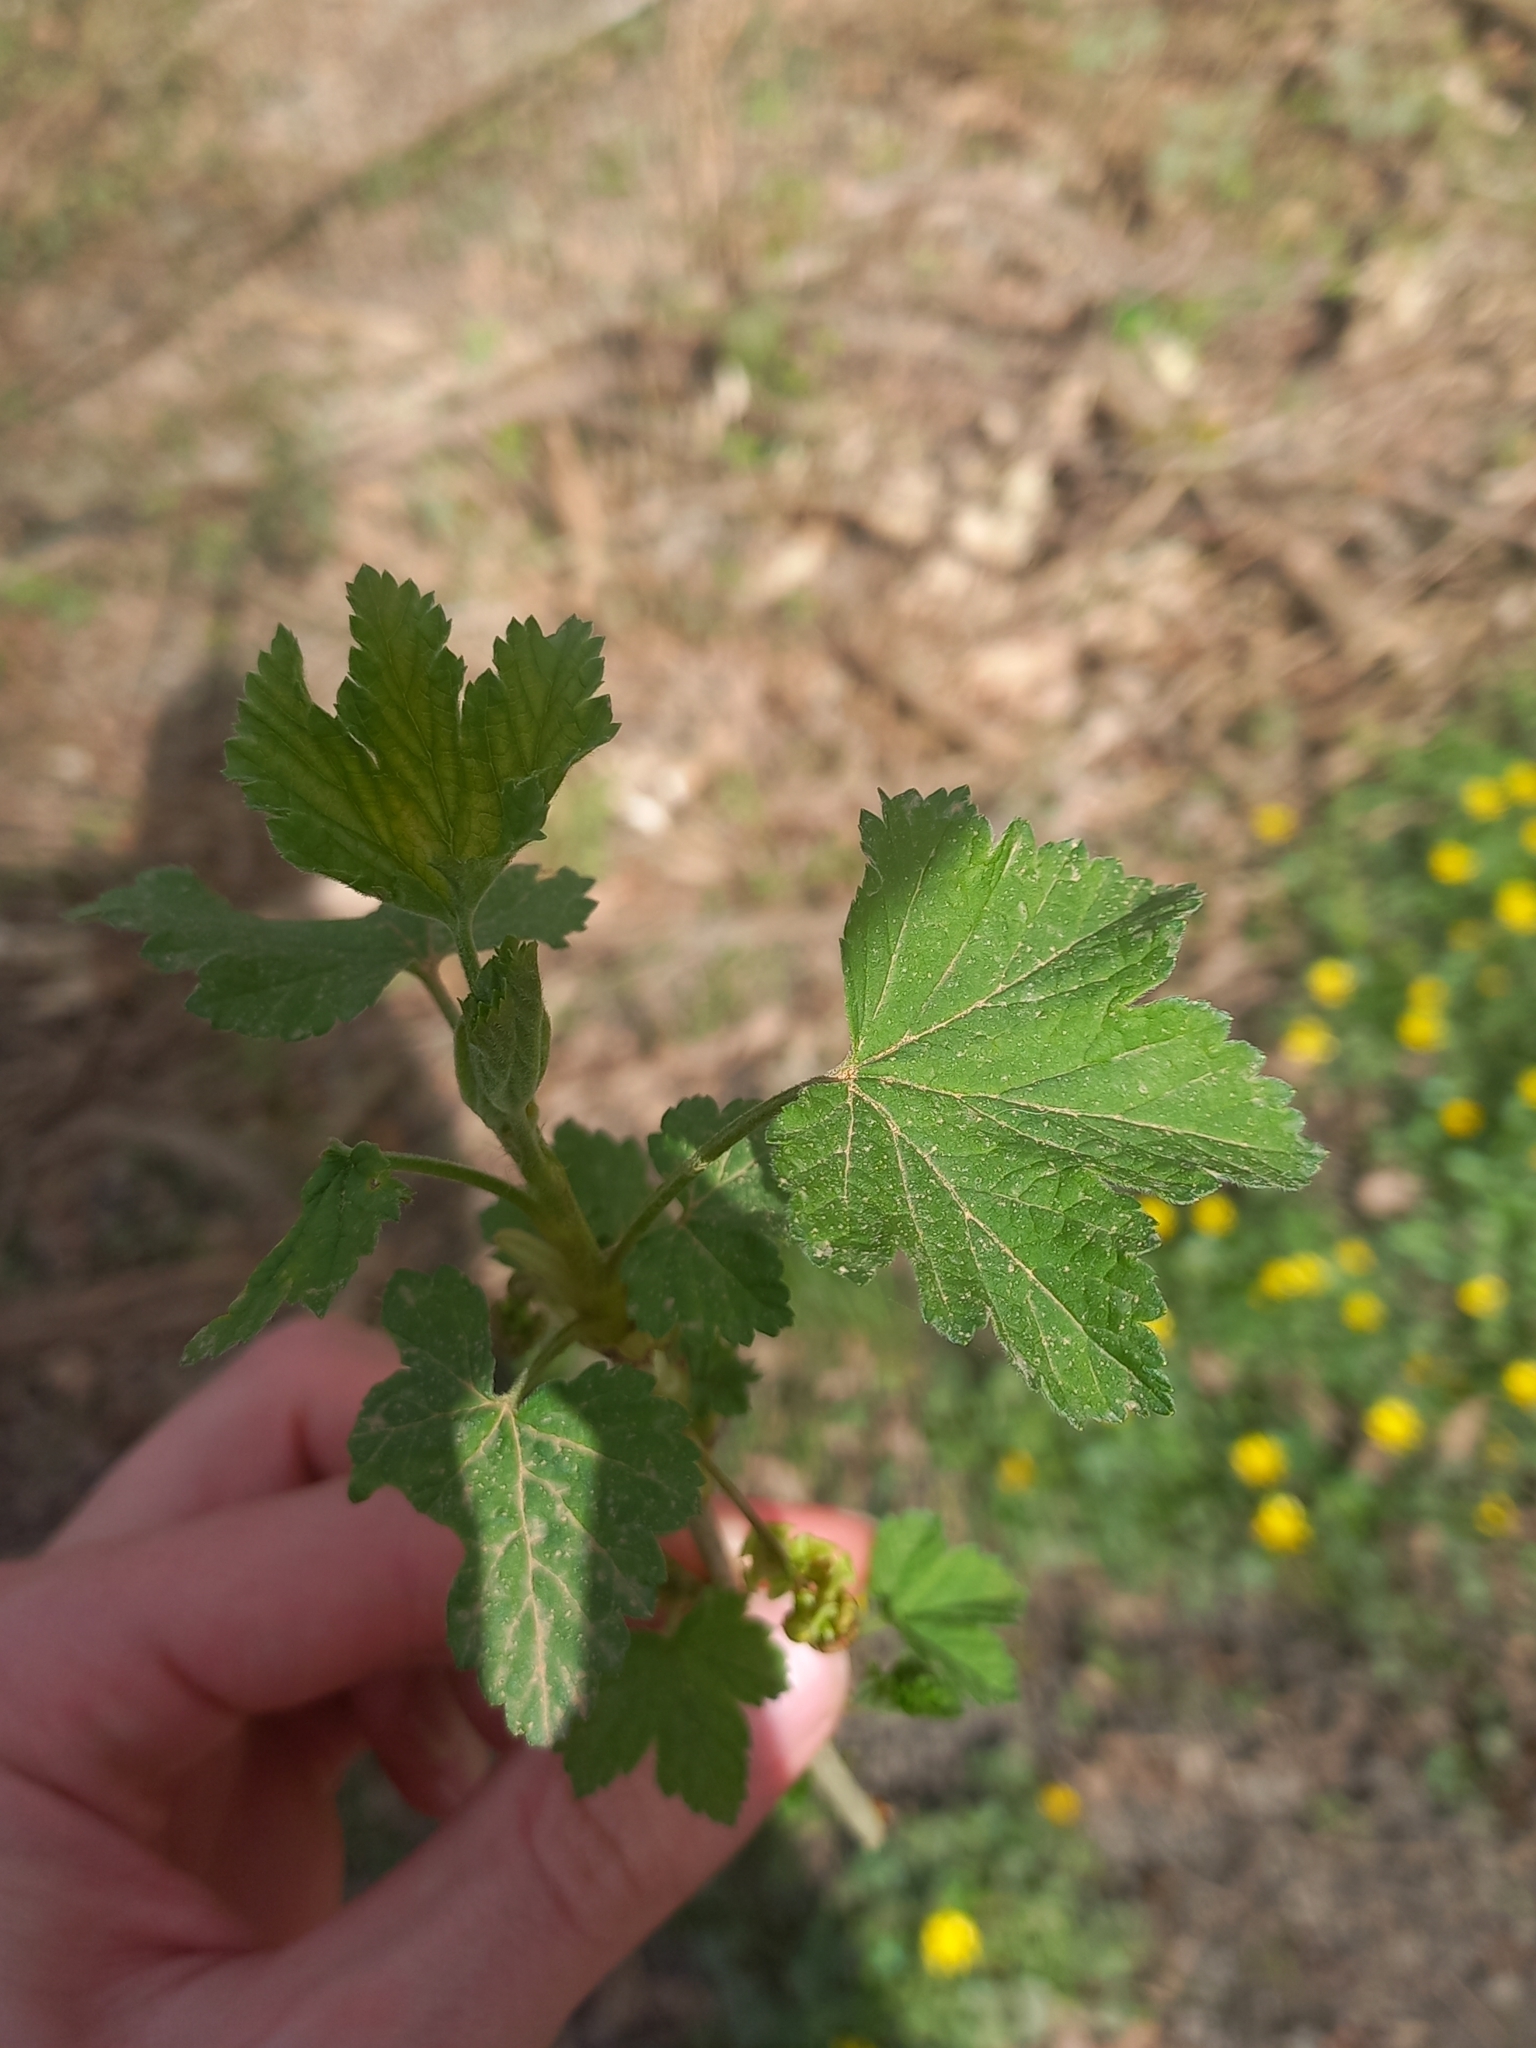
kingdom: Plantae
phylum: Tracheophyta
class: Magnoliopsida
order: Saxifragales
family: Grossulariaceae
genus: Ribes
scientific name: Ribes rubrum
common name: Red currant
